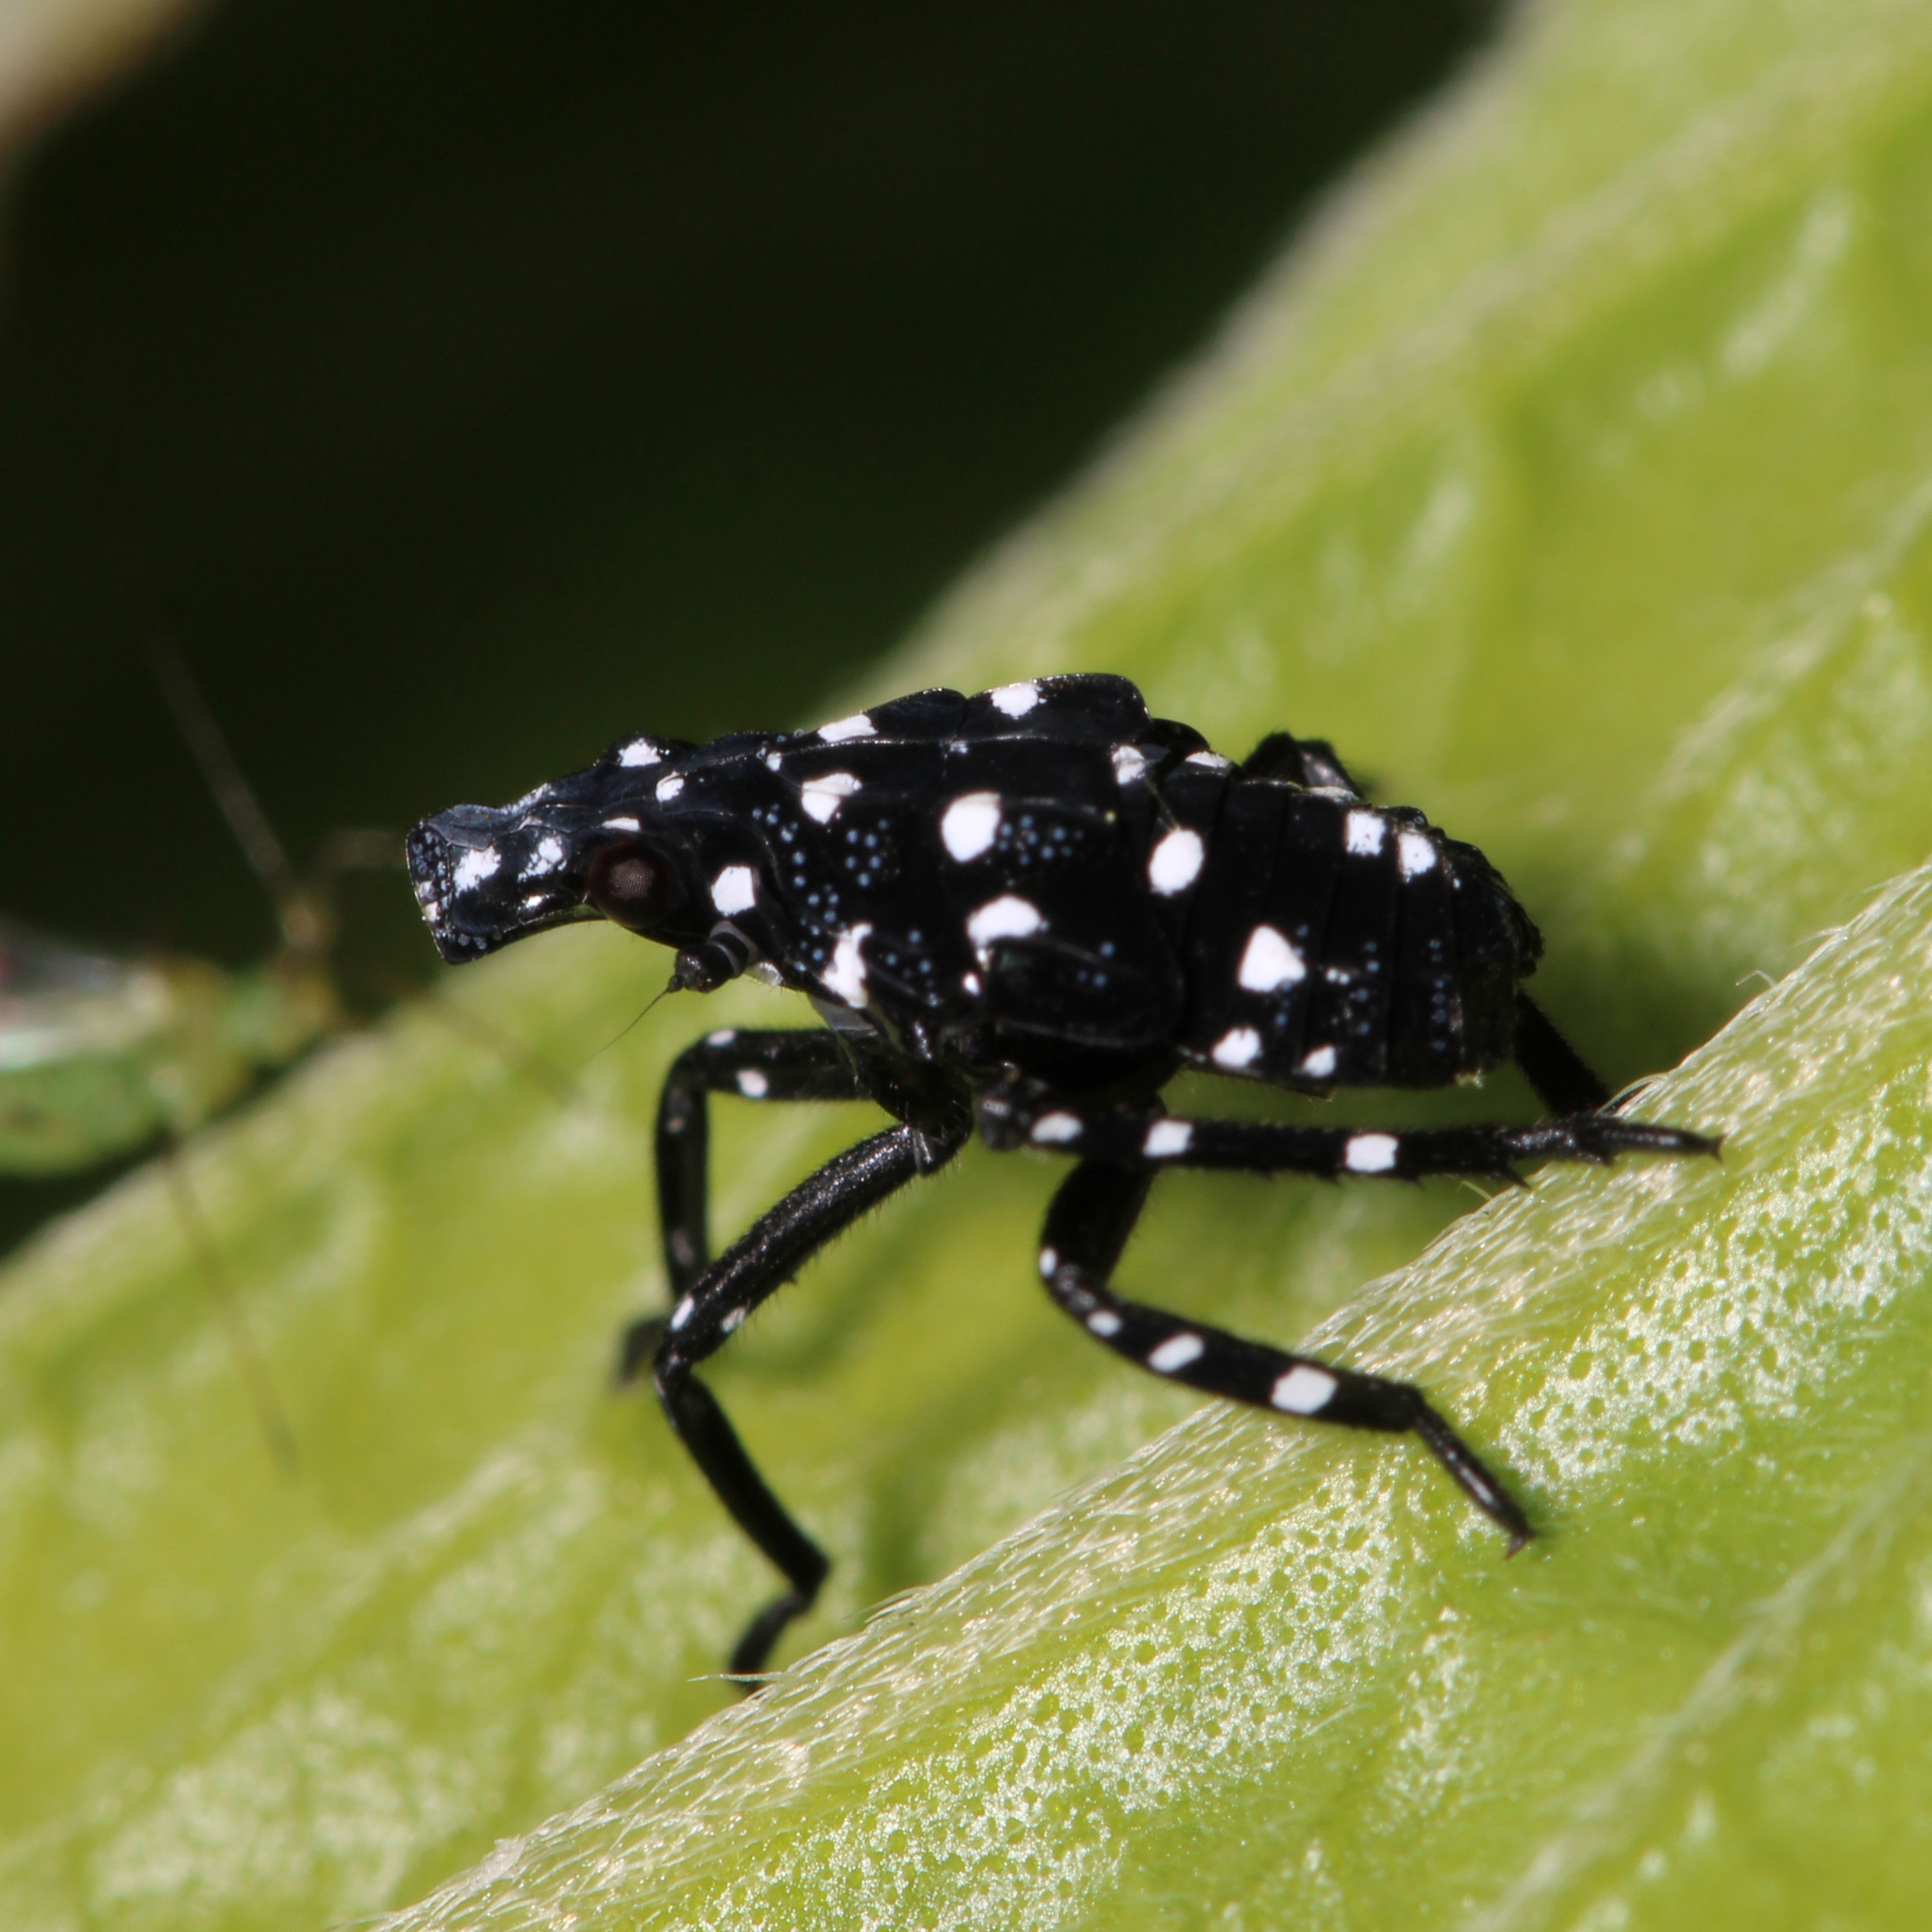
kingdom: Animalia
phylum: Arthropoda
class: Insecta
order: Hemiptera
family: Fulgoridae
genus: Lycorma
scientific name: Lycorma delicatula
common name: Spotted lanternfly
